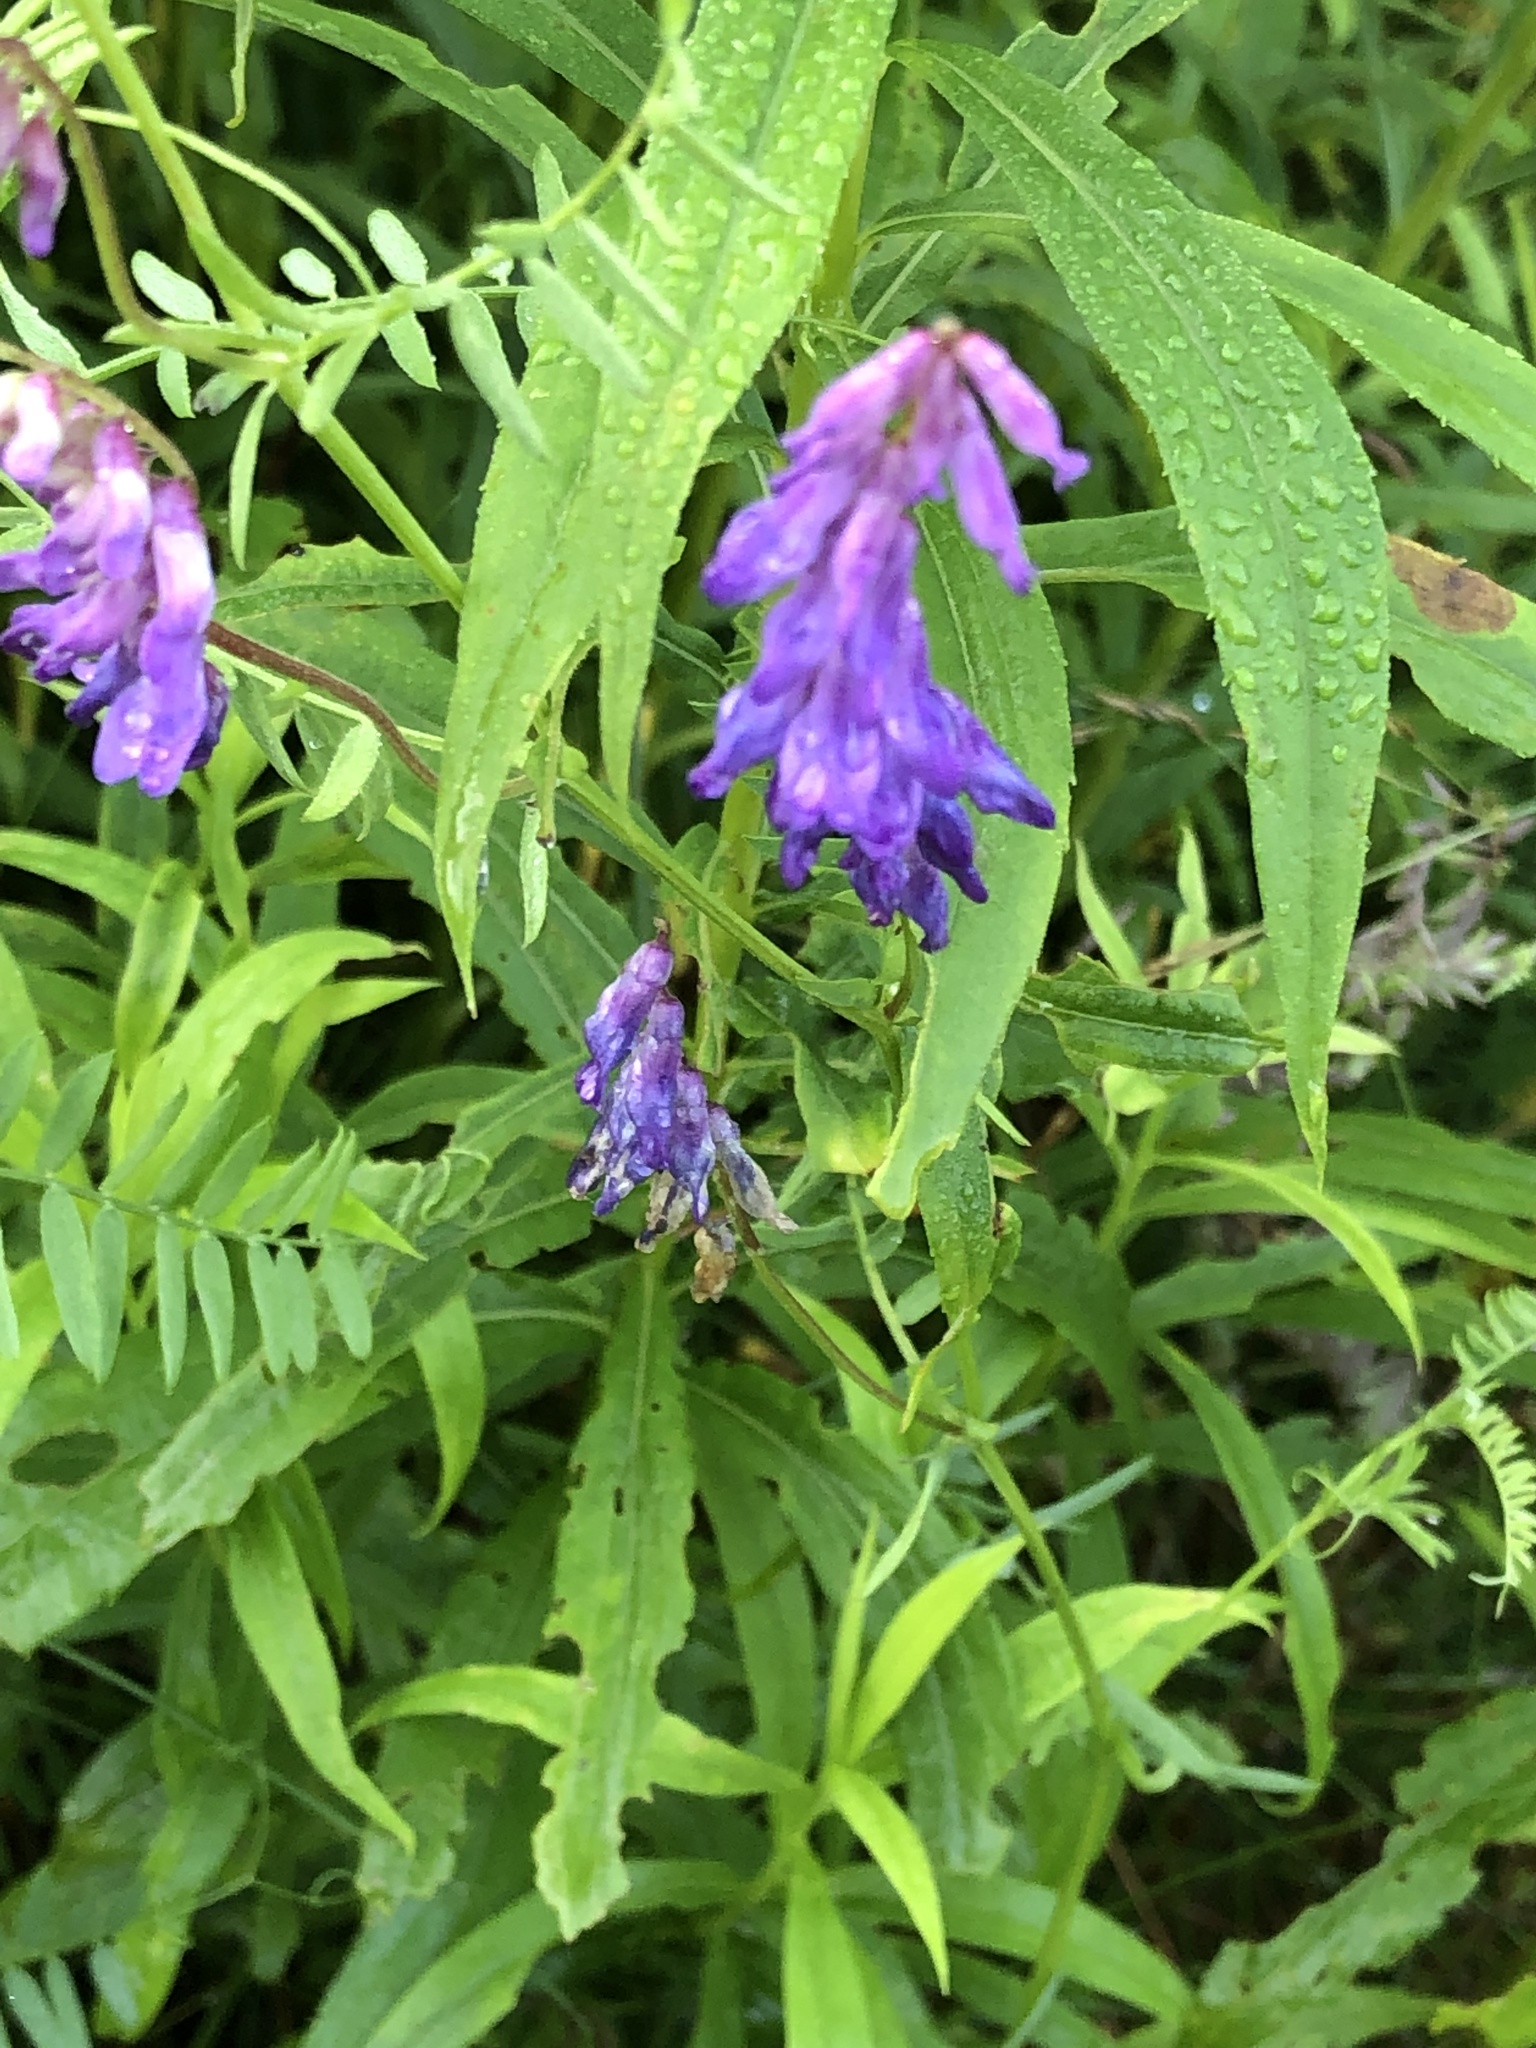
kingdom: Plantae
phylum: Tracheophyta
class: Magnoliopsida
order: Fabales
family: Fabaceae
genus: Vicia
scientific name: Vicia cracca
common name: Bird vetch
